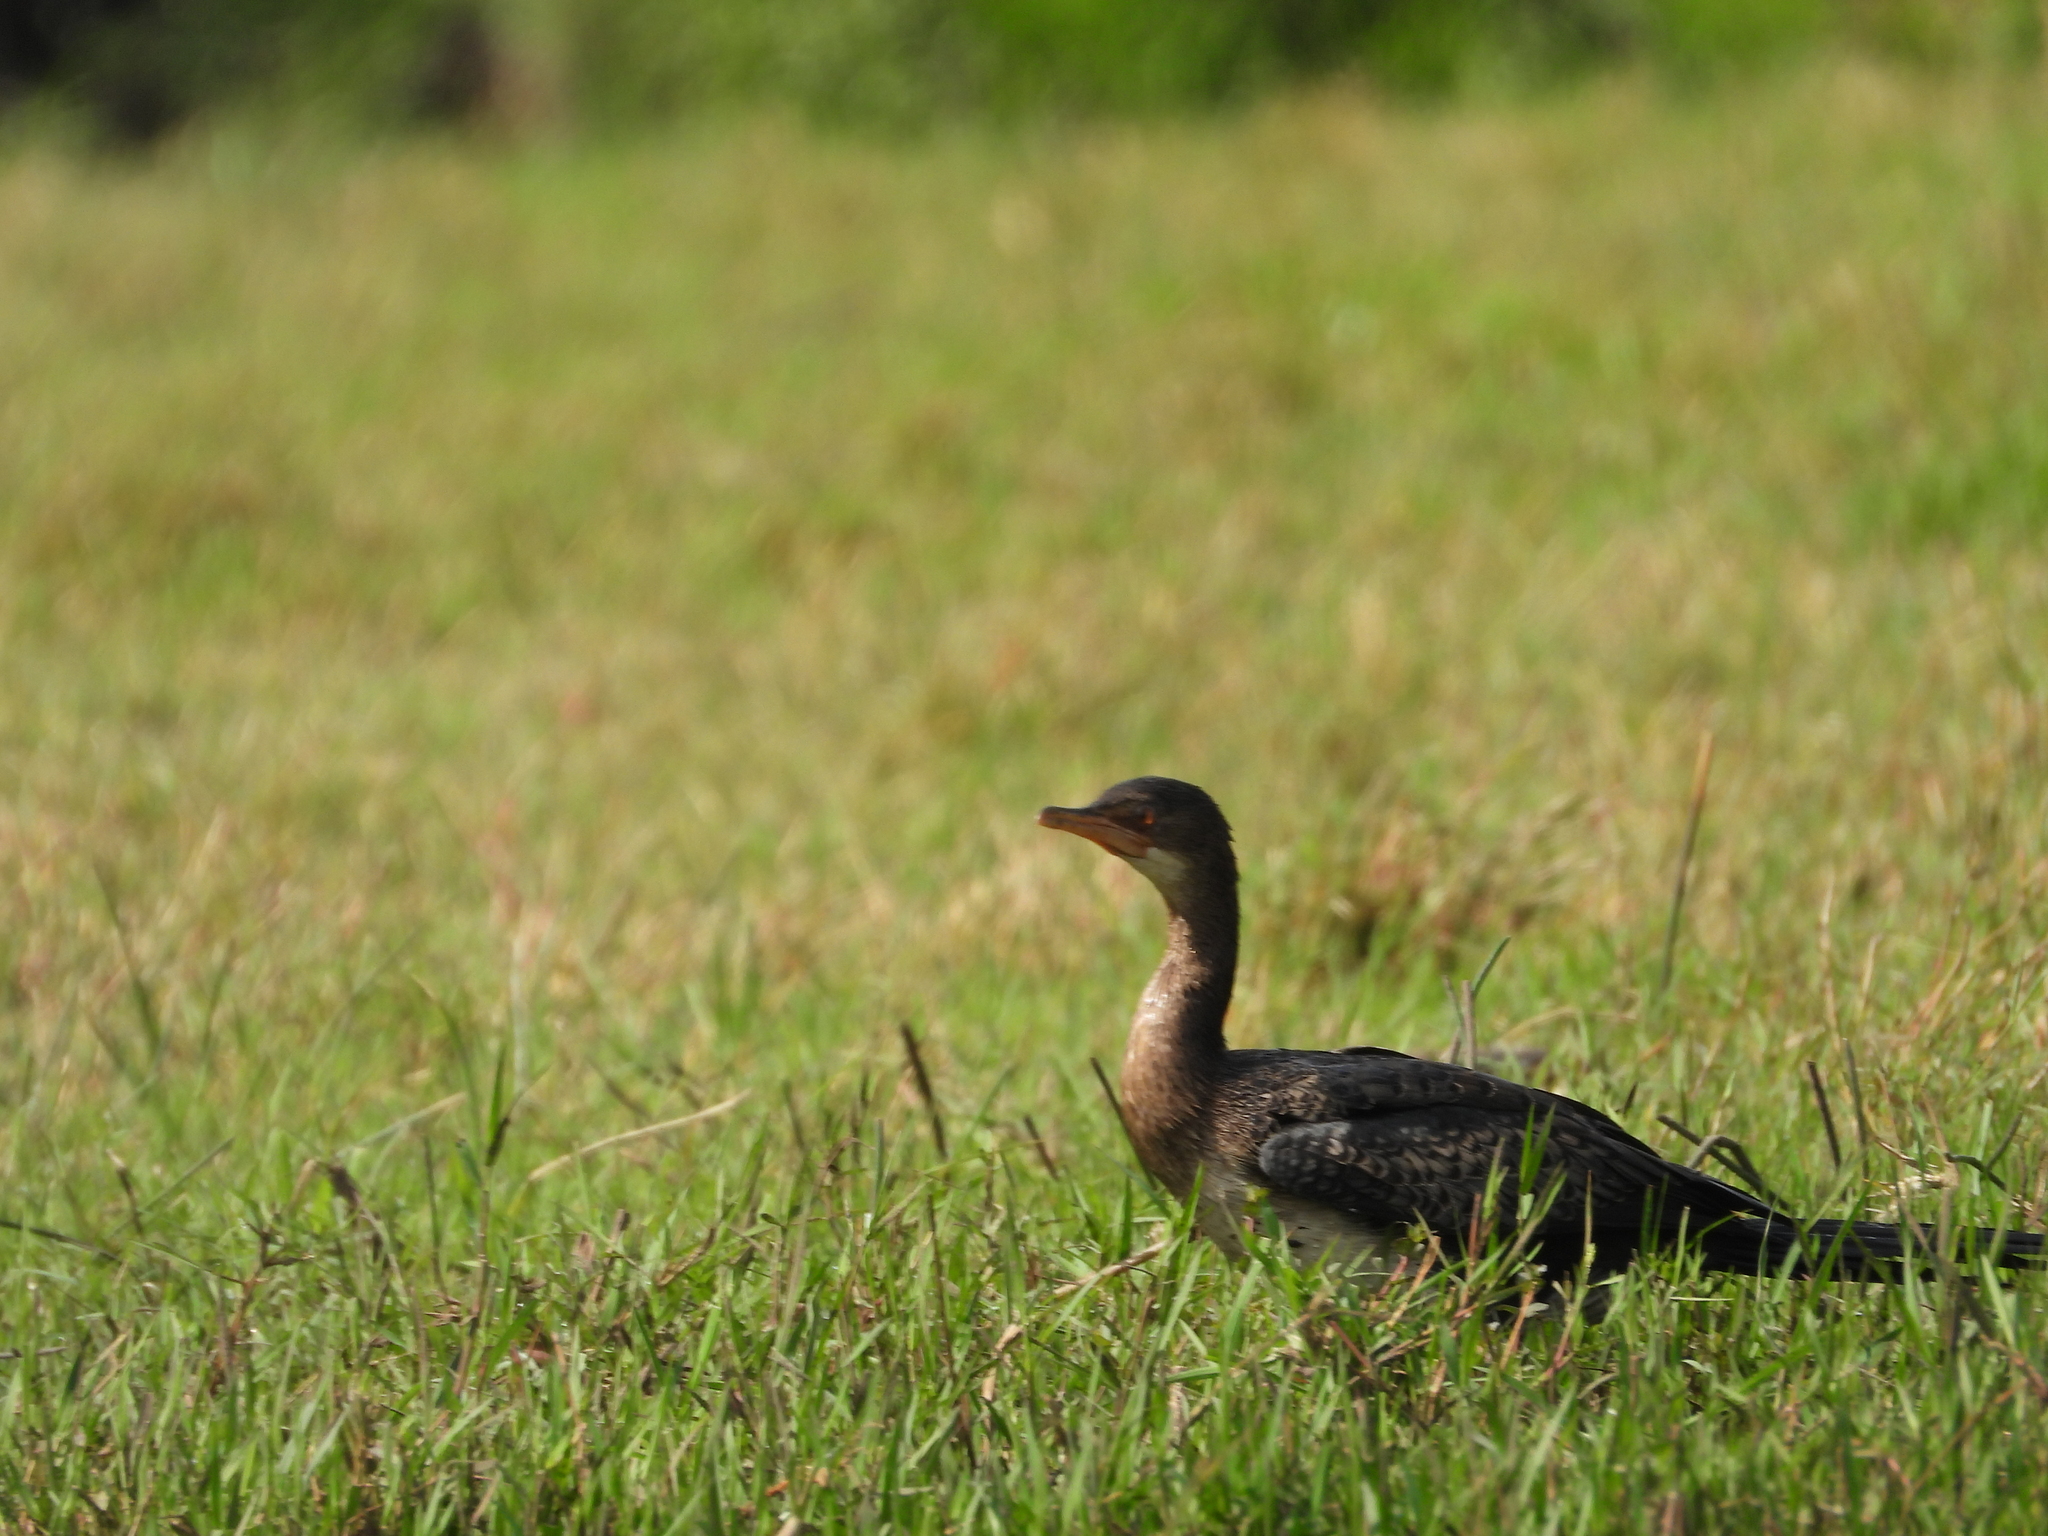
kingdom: Animalia
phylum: Chordata
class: Aves
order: Suliformes
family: Phalacrocoracidae
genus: Microcarbo
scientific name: Microcarbo africanus
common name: Long-tailed cormorant
